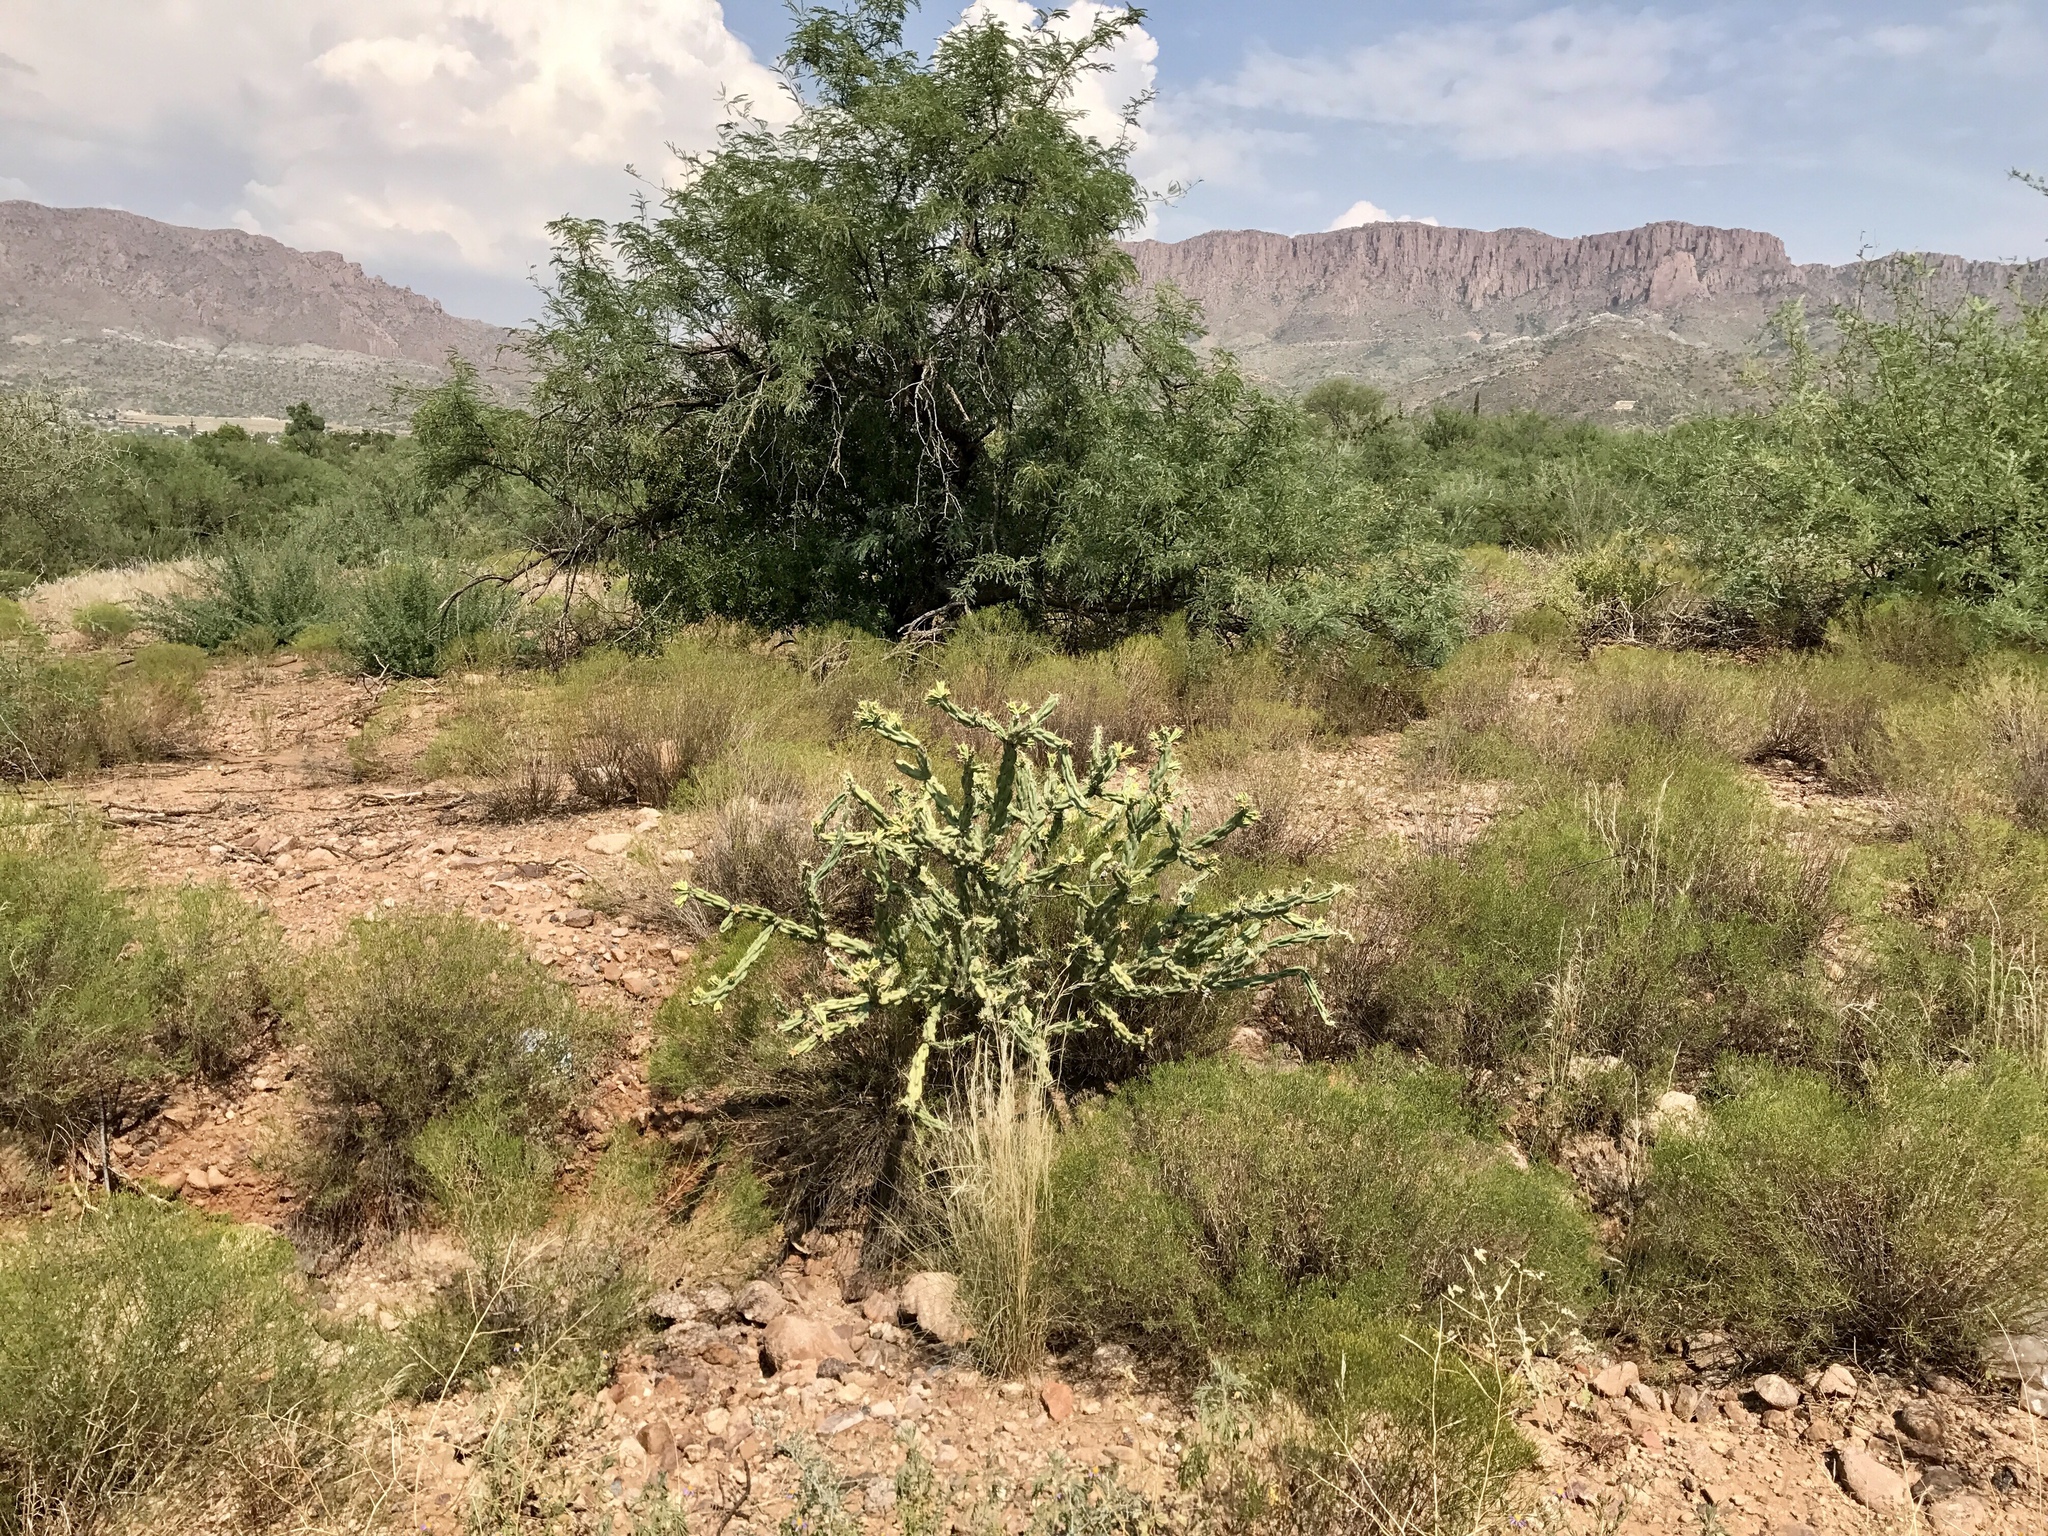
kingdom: Plantae
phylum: Tracheophyta
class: Magnoliopsida
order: Caryophyllales
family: Cactaceae
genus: Cylindropuntia
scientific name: Cylindropuntia acanthocarpa
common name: Buckhorn cholla
